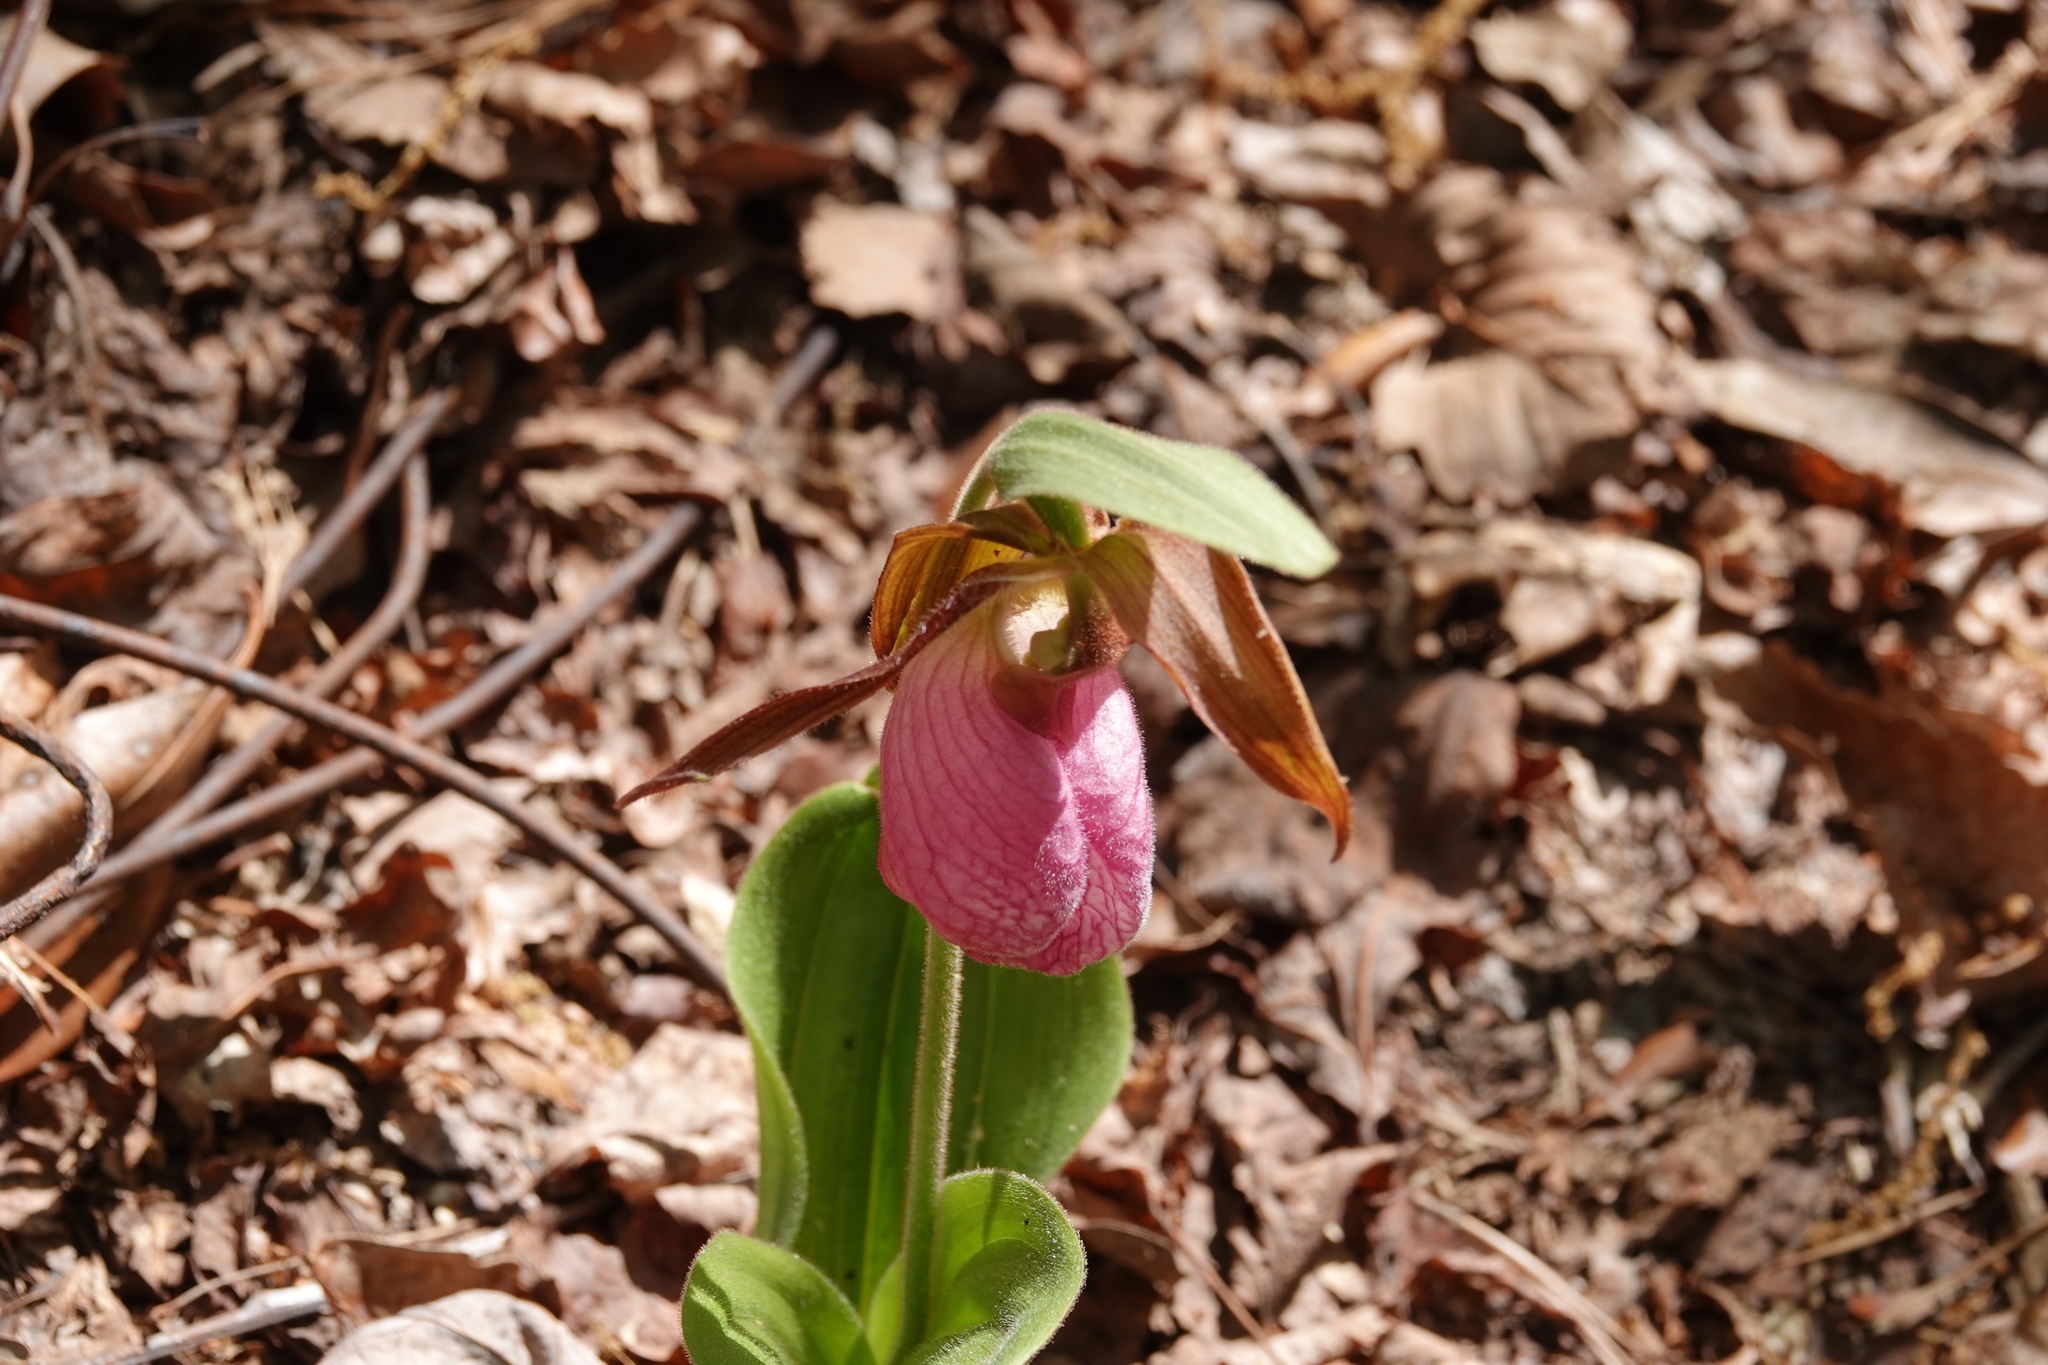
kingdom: Plantae
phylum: Tracheophyta
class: Liliopsida
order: Asparagales
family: Orchidaceae
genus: Cypripedium
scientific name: Cypripedium acaule
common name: Pink lady's-slipper
